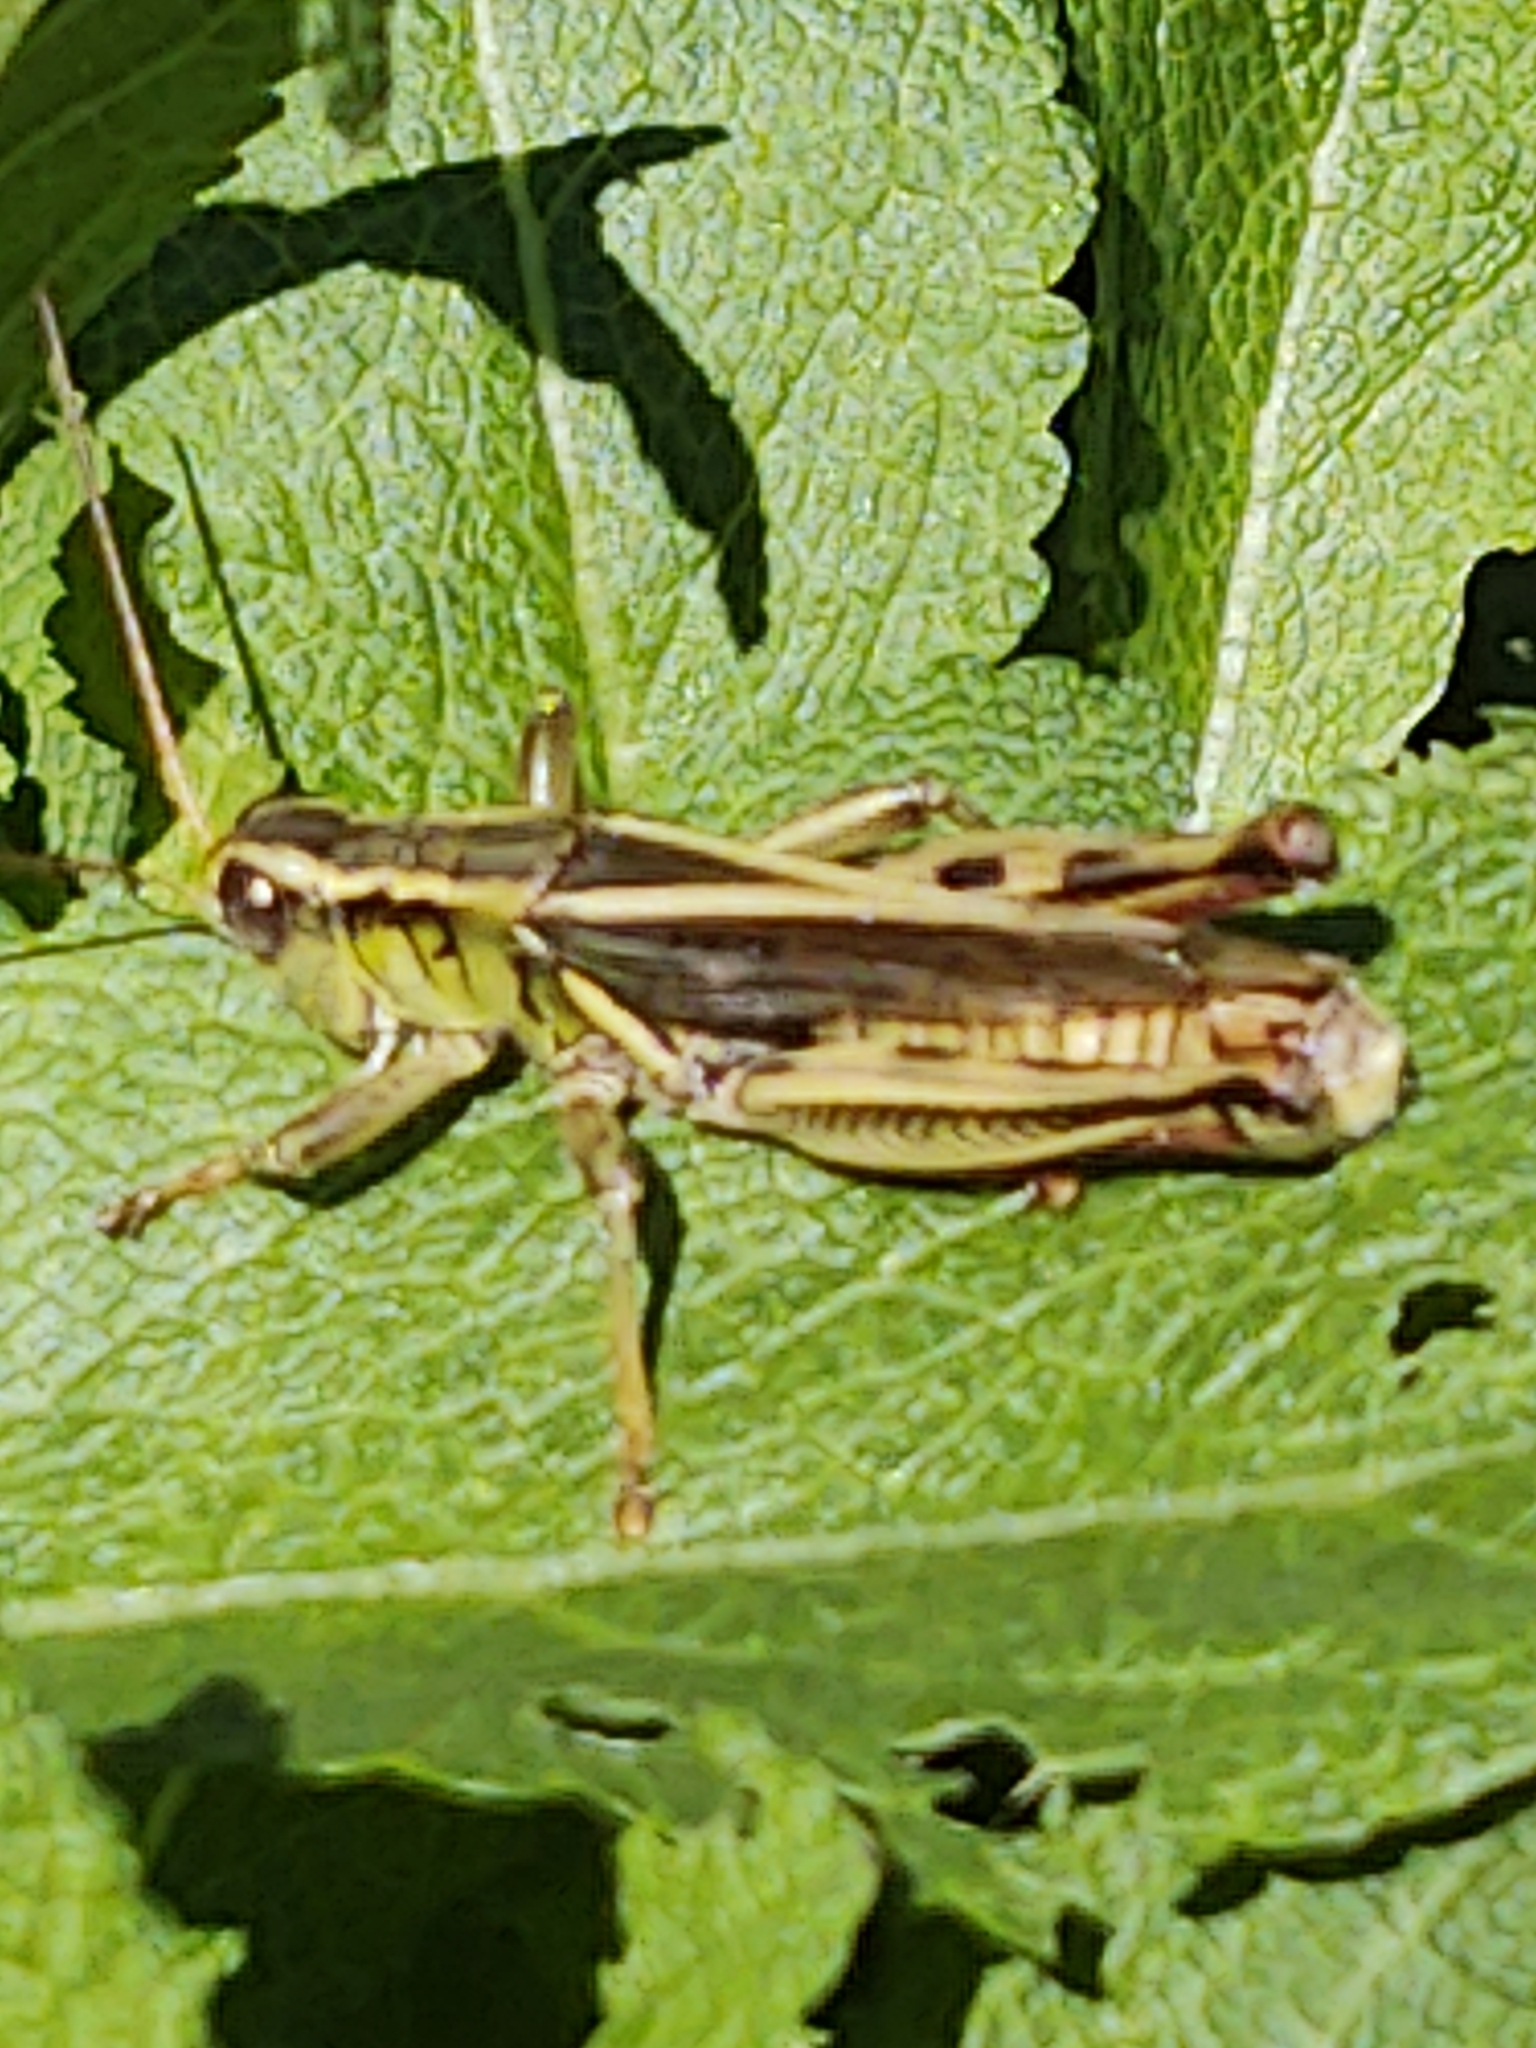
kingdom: Animalia
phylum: Arthropoda
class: Insecta
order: Orthoptera
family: Acrididae
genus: Melanoplus
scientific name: Melanoplus bivittatus
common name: Two-striped grasshopper
